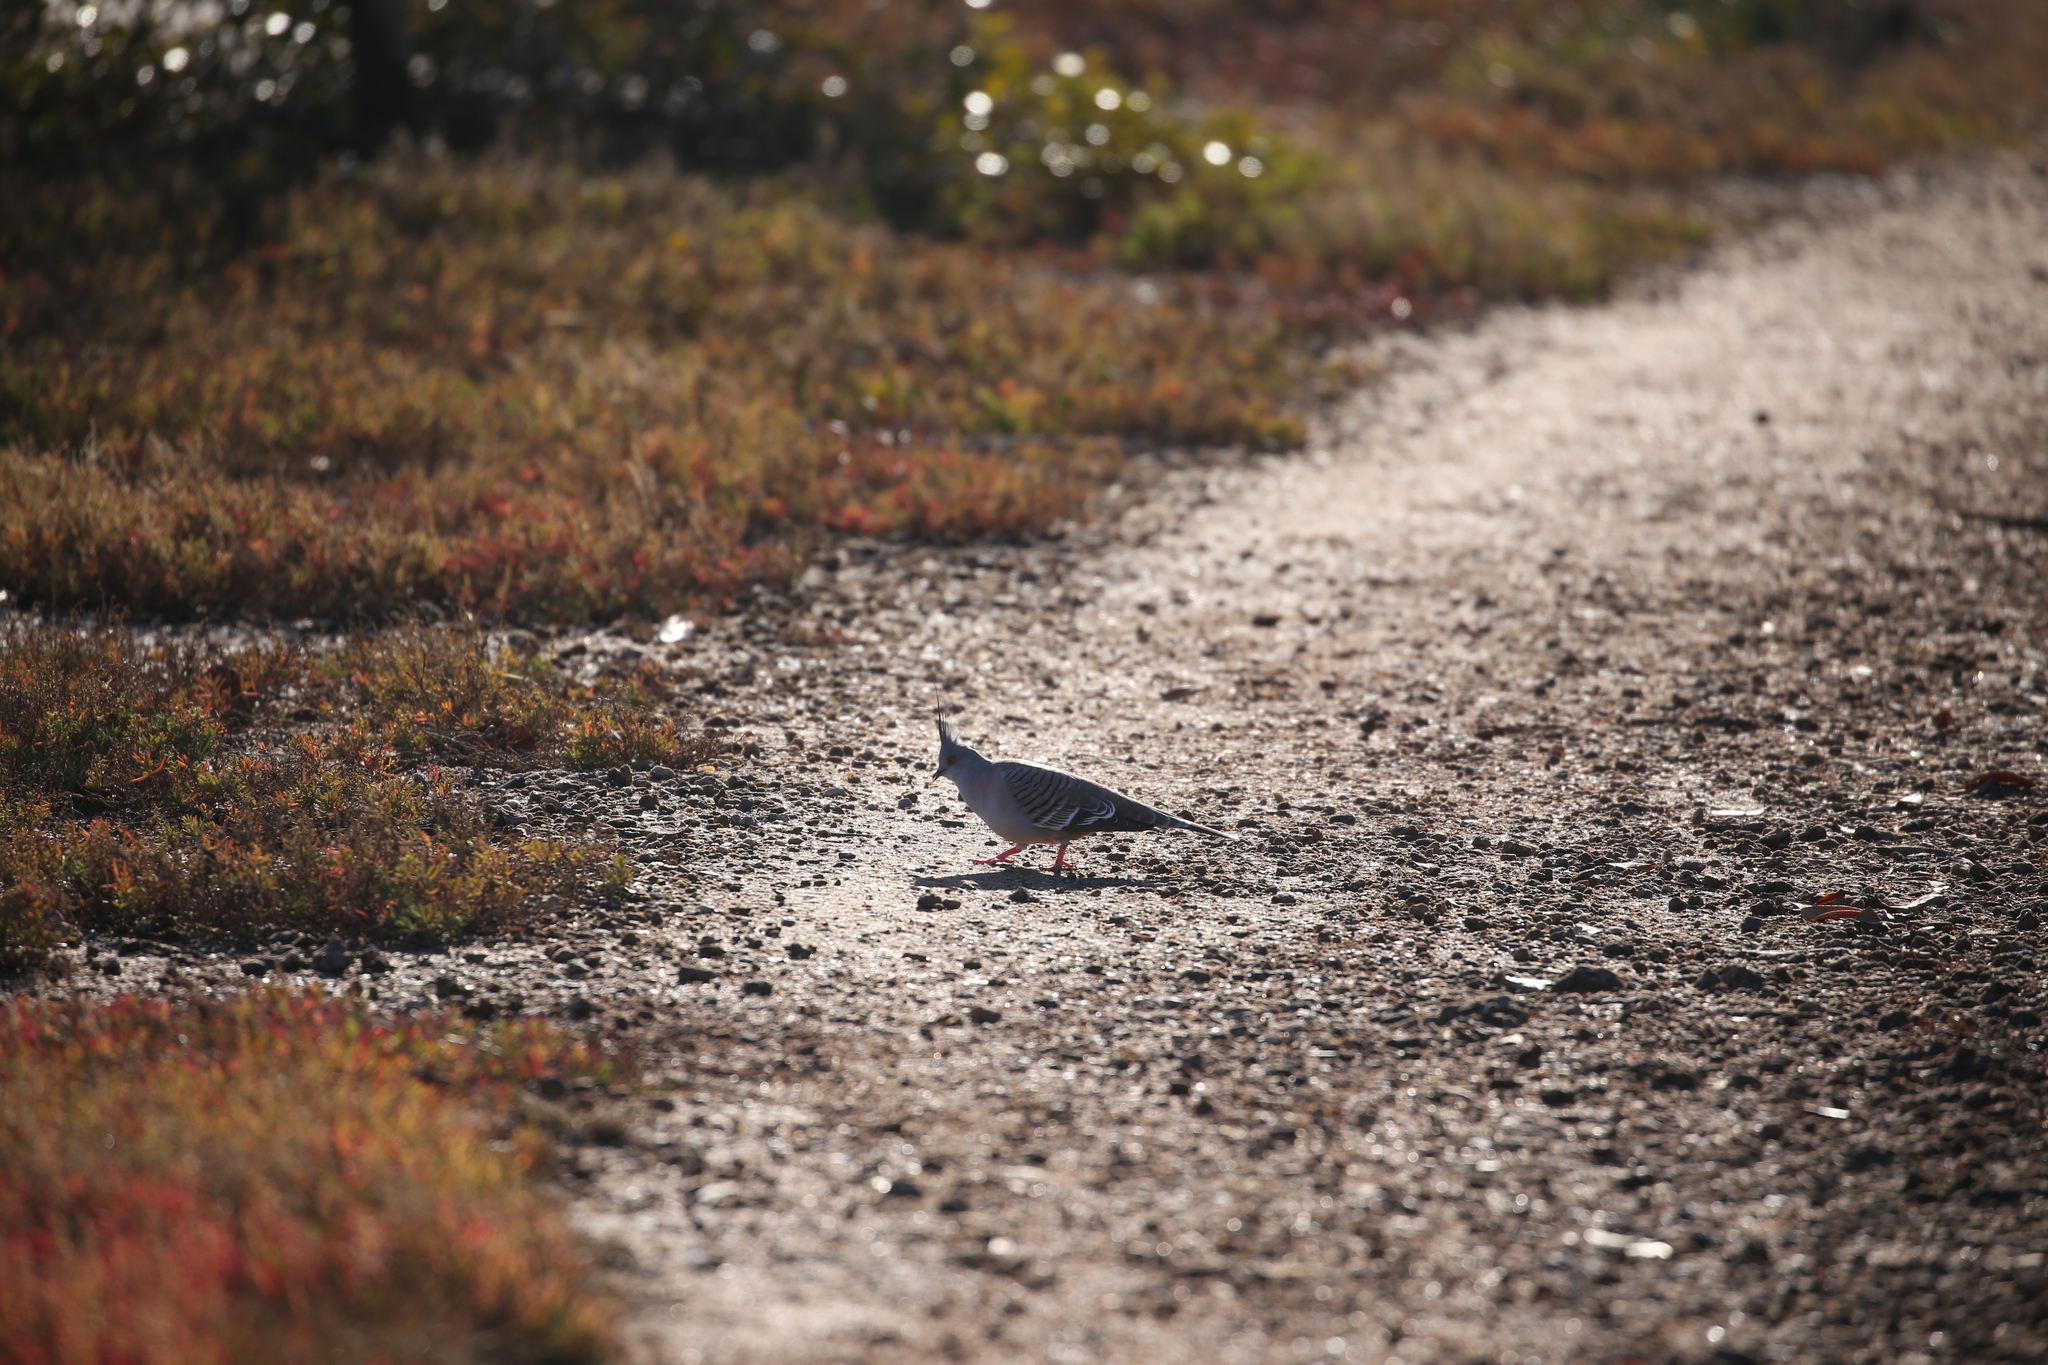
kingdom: Animalia
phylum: Chordata
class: Aves
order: Columbiformes
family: Columbidae
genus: Ocyphaps
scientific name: Ocyphaps lophotes
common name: Crested pigeon
